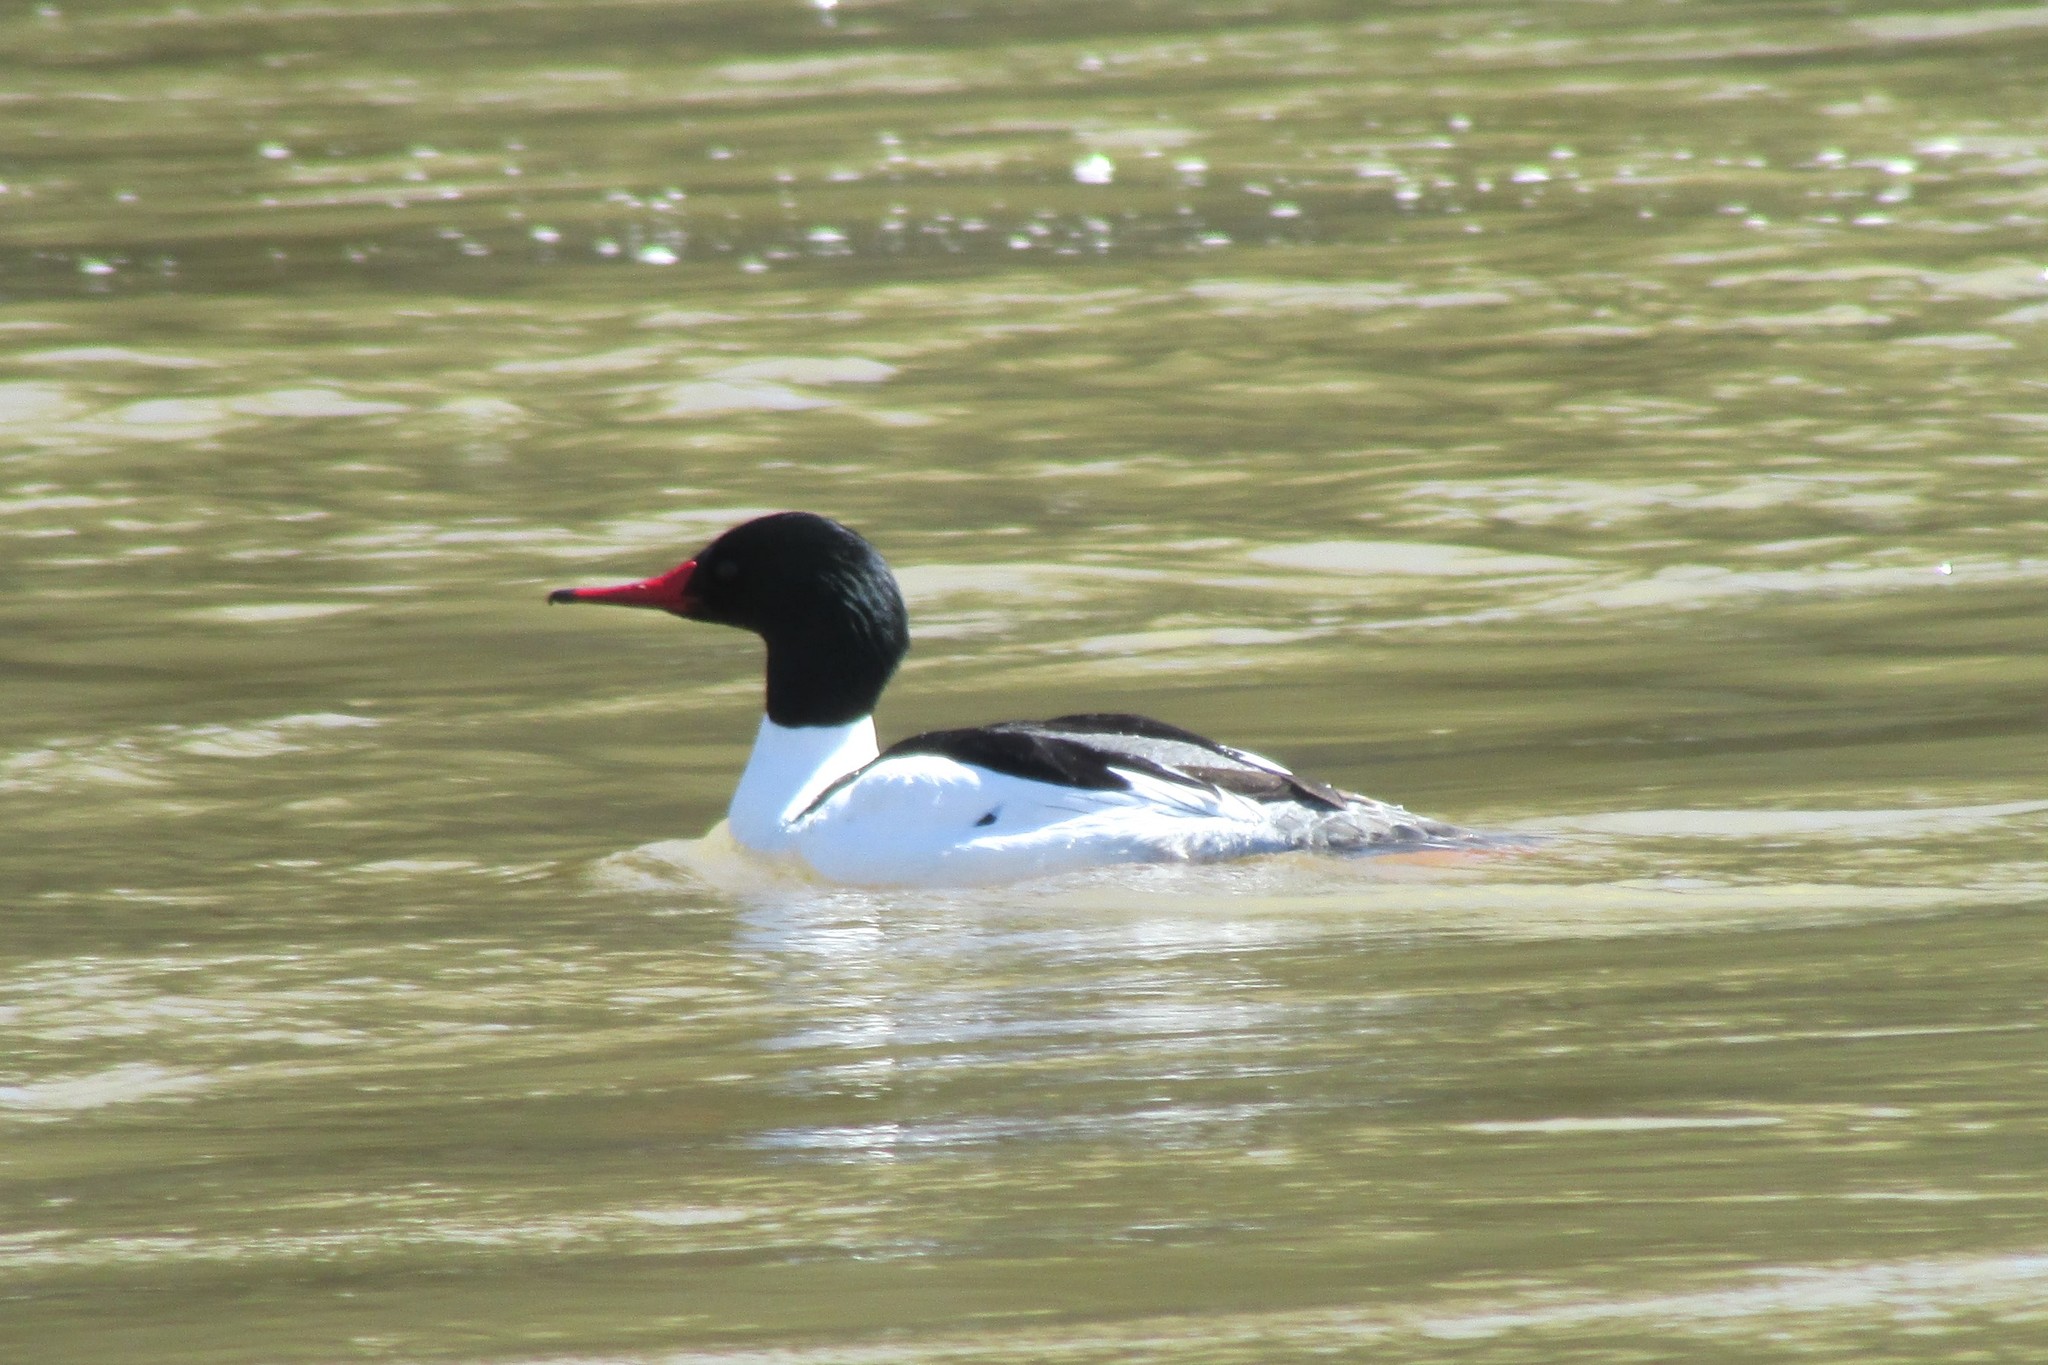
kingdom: Animalia
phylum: Chordata
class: Aves
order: Anseriformes
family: Anatidae
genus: Mergus
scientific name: Mergus merganser
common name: Common merganser
